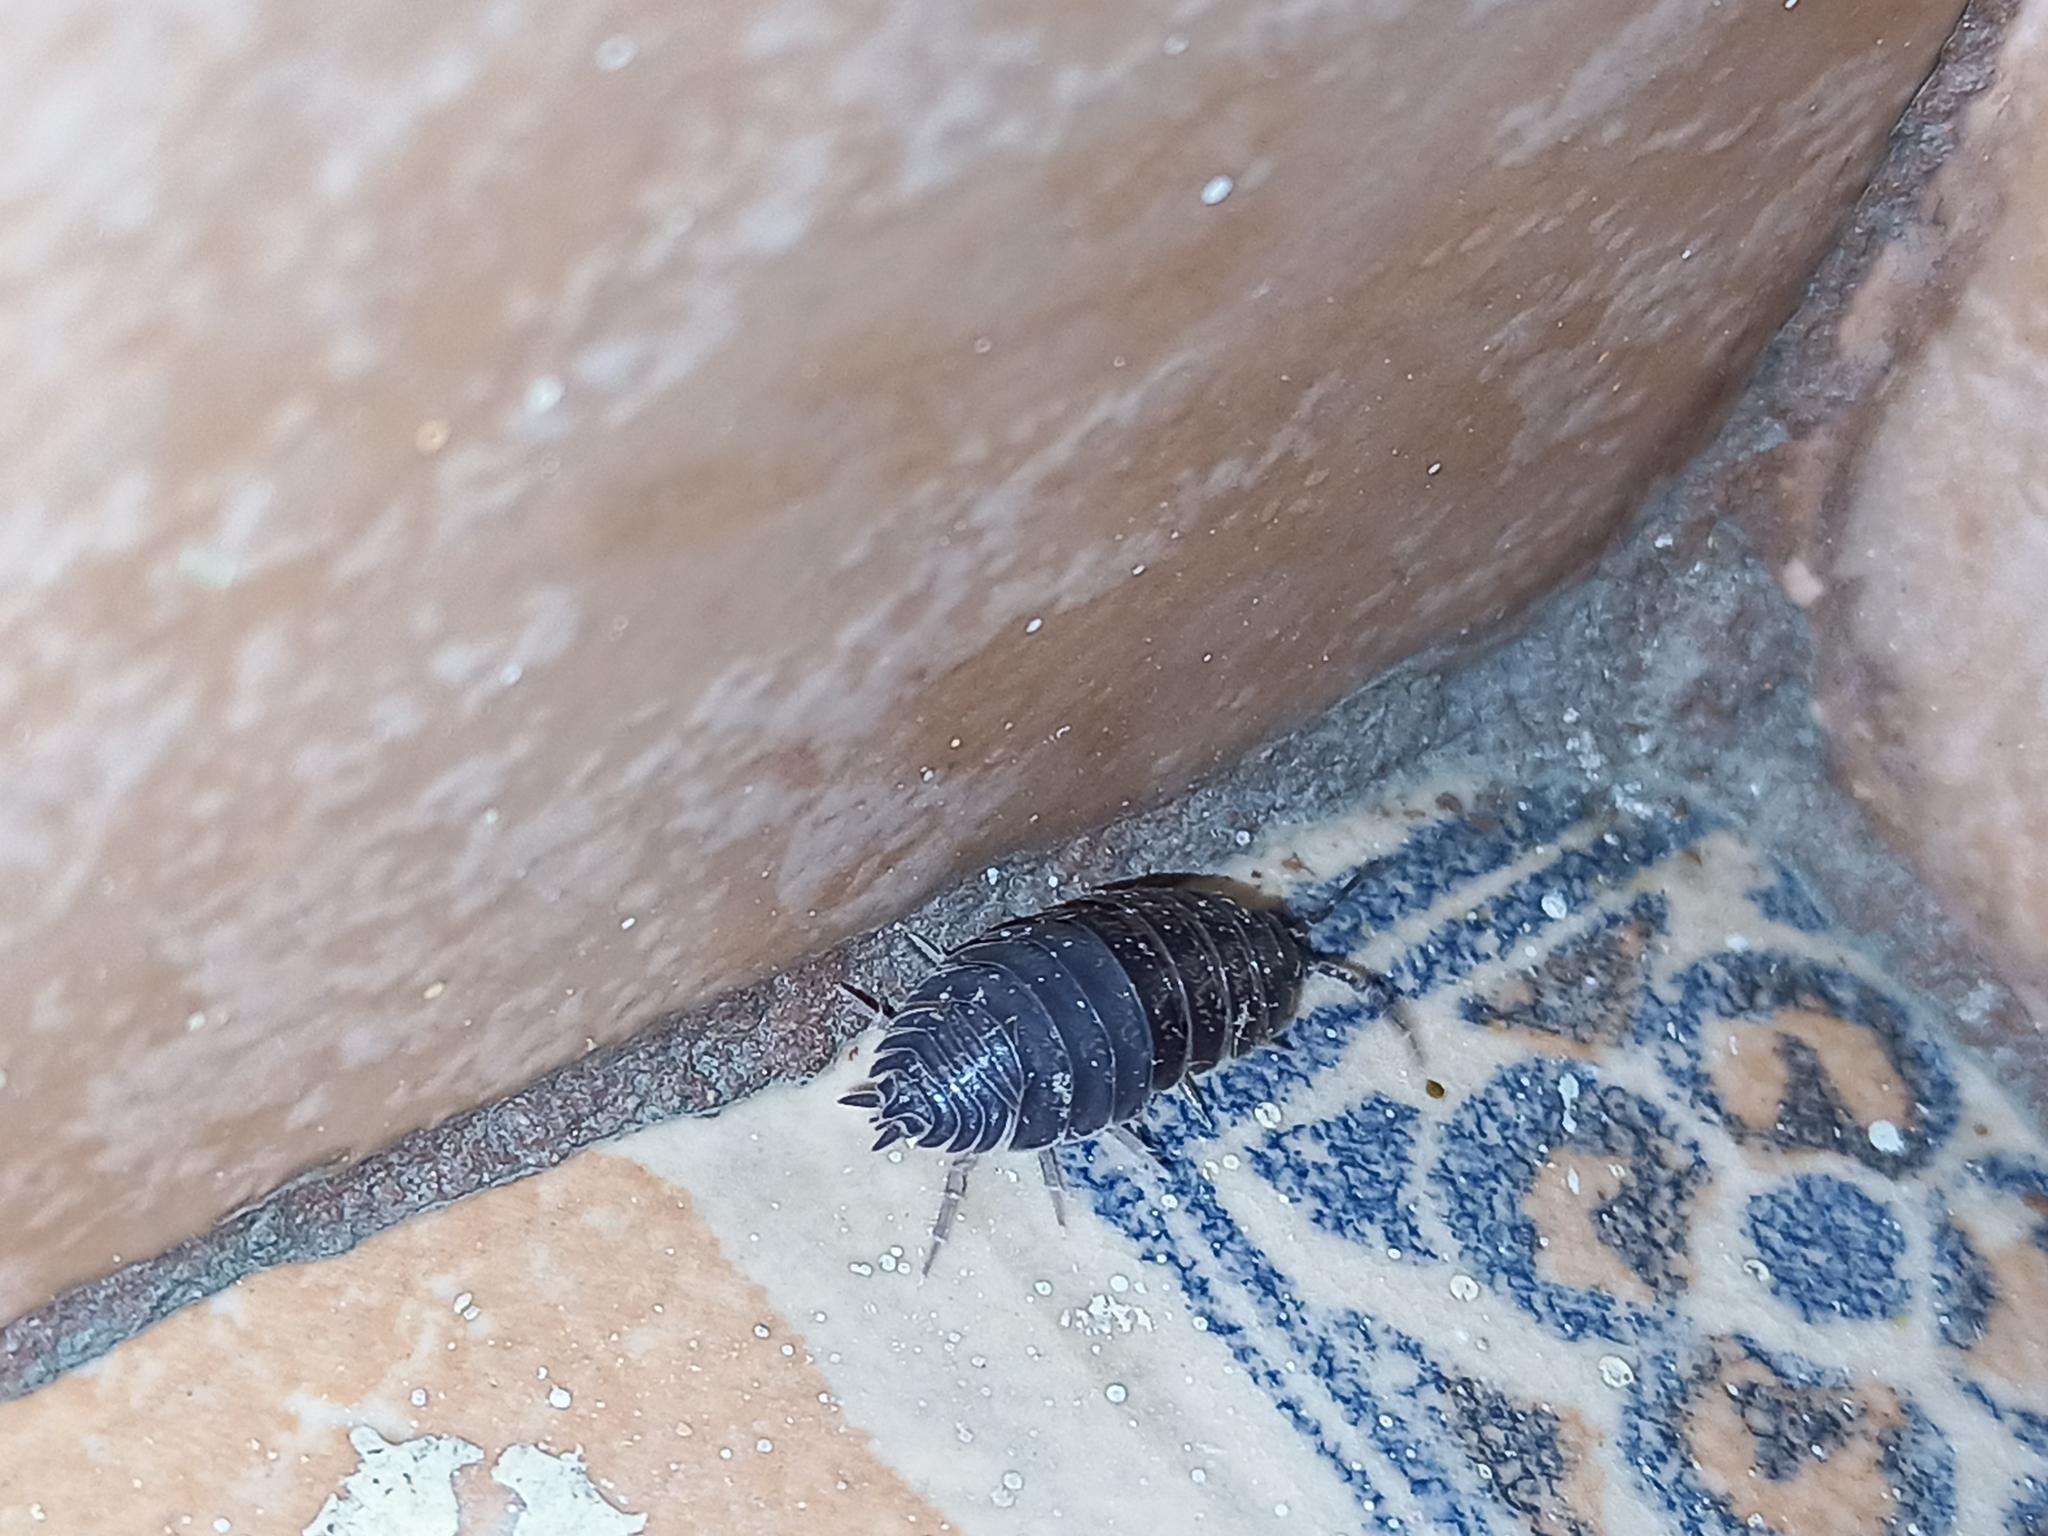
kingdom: Animalia
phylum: Arthropoda
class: Malacostraca
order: Isopoda
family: Porcellionidae
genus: Porcellio
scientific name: Porcellio scaber
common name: Common rough woodlouse
